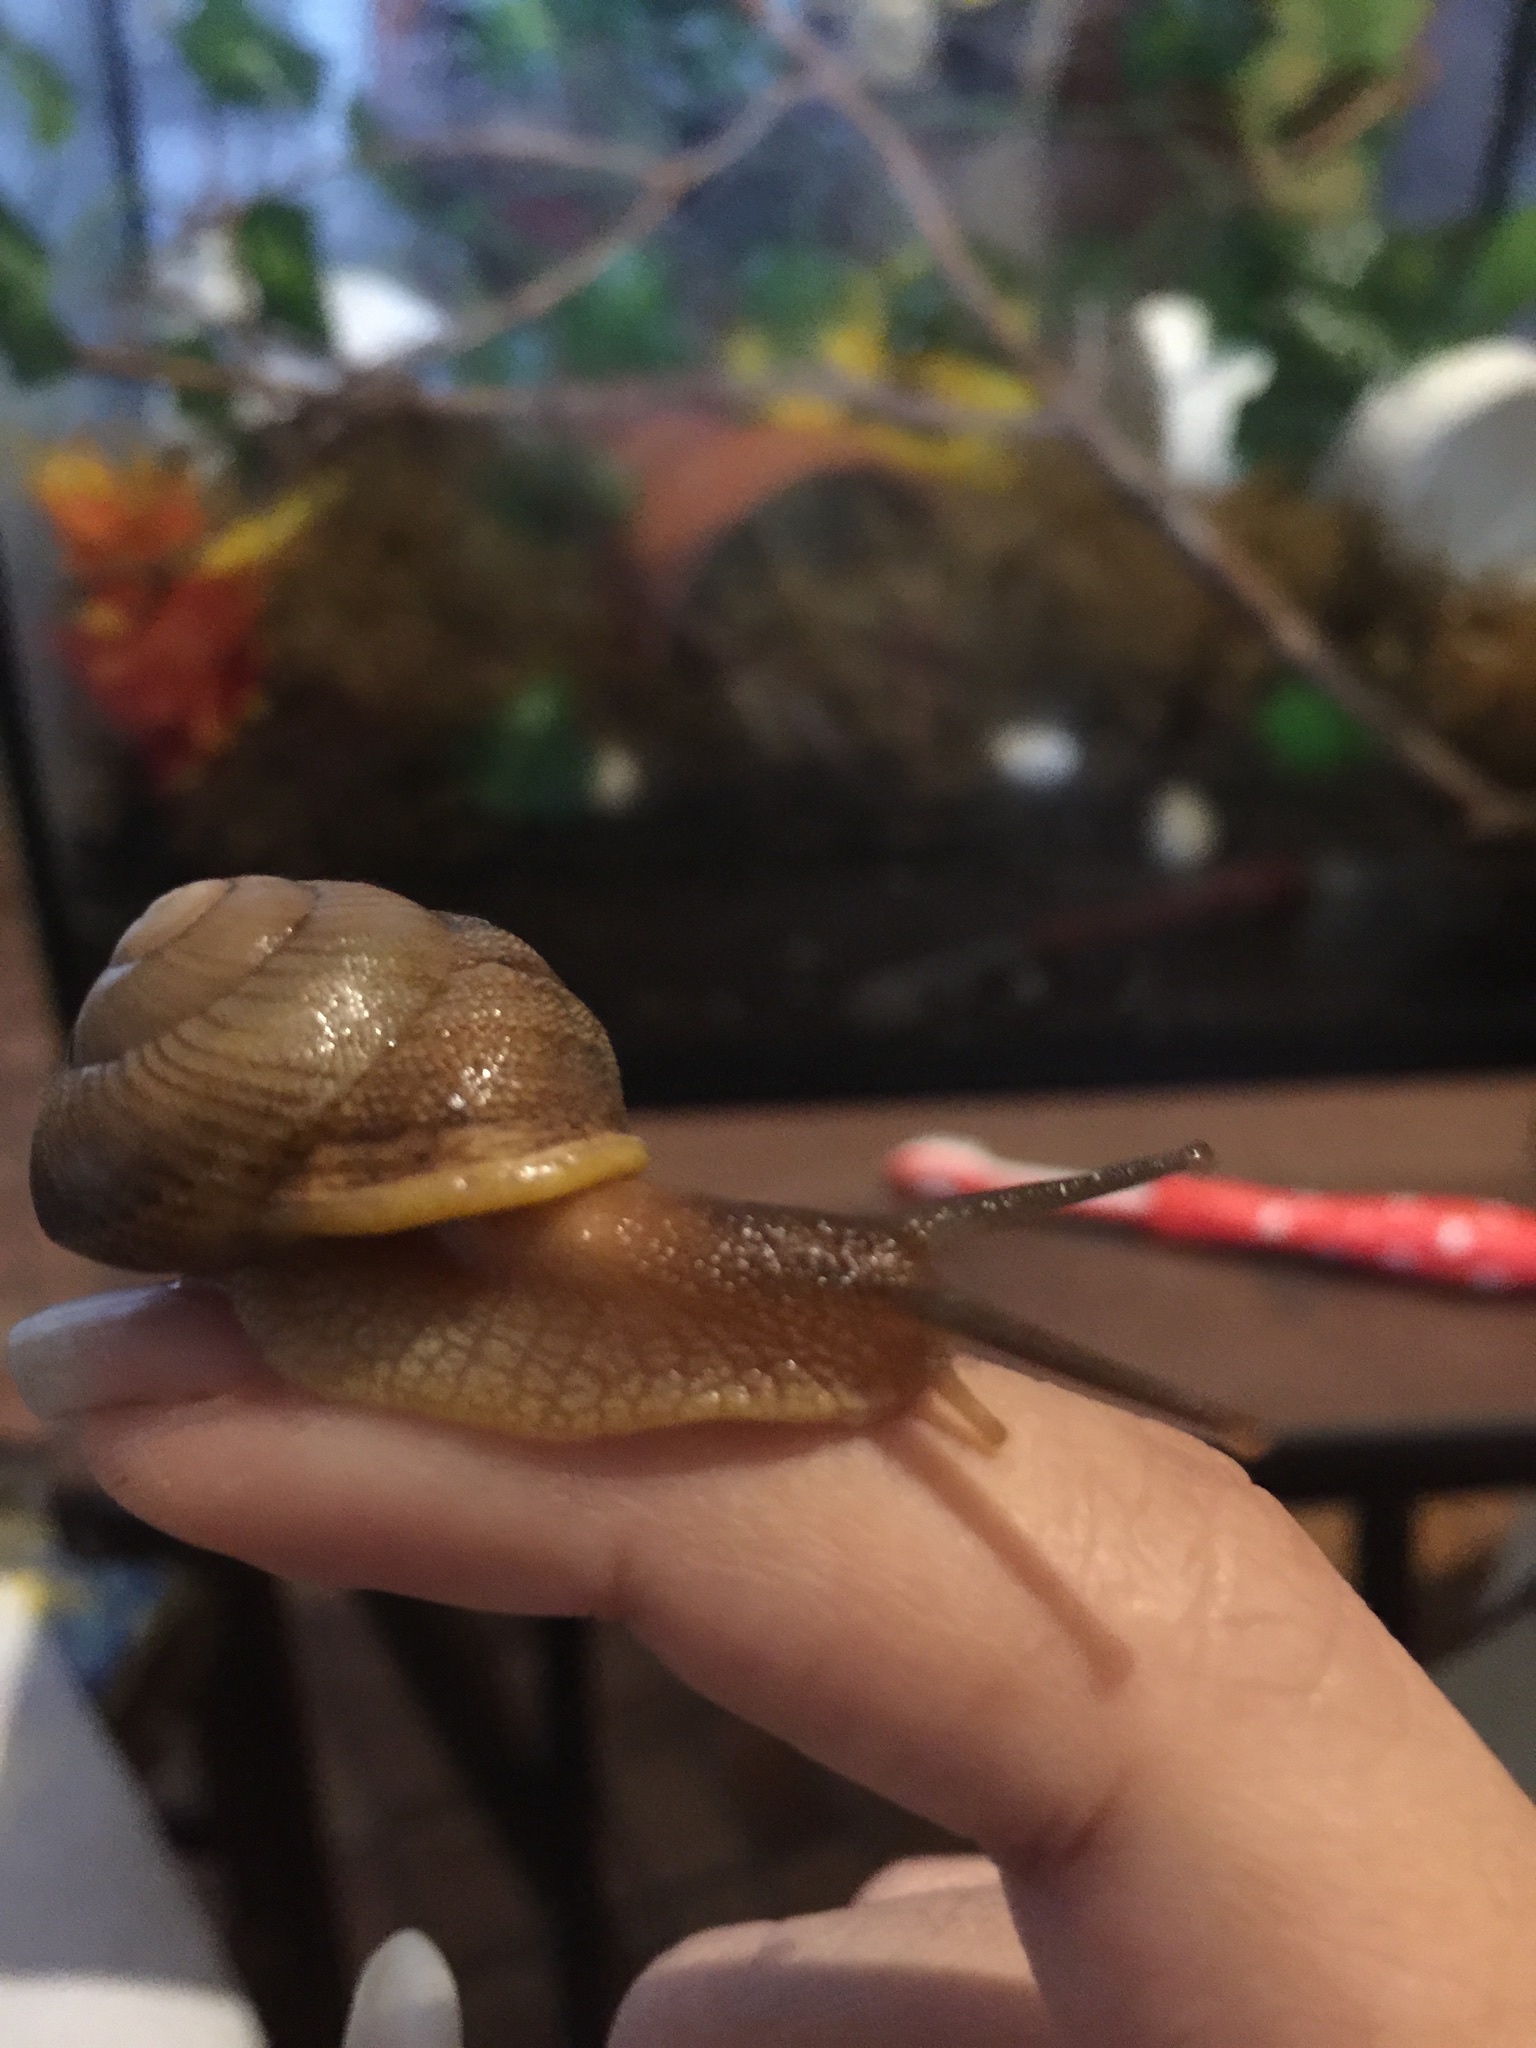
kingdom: Animalia
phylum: Mollusca
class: Gastropoda
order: Stylommatophora
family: Sagdidae
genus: Granodomus
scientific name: Granodomus lima
